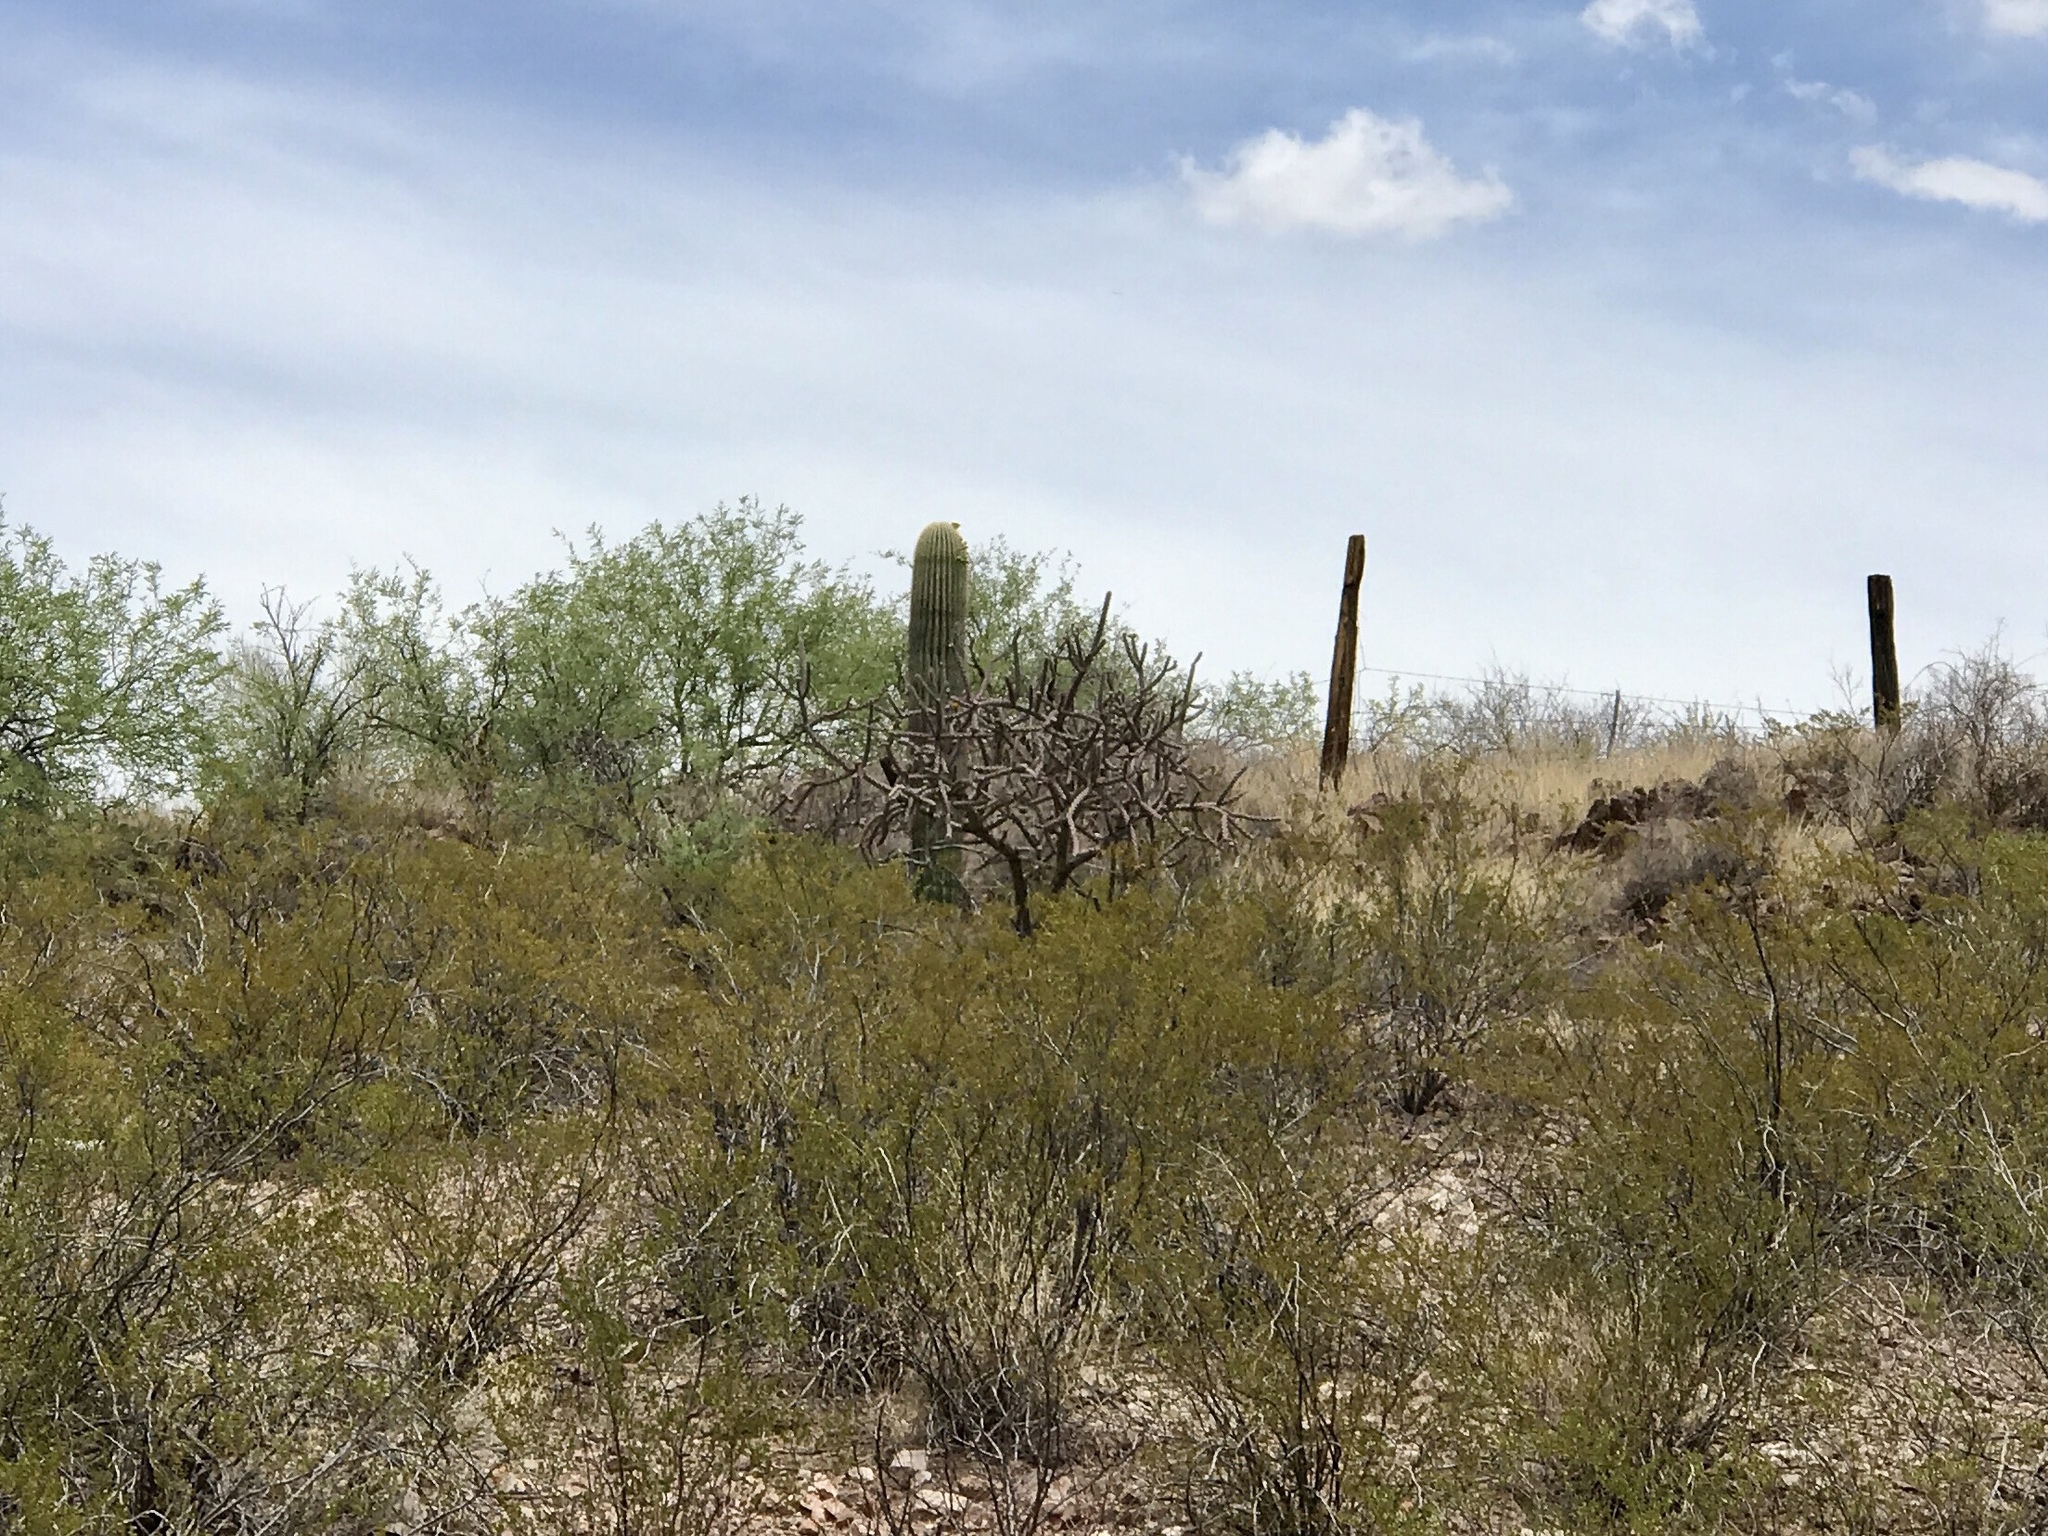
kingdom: Plantae
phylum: Tracheophyta
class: Magnoliopsida
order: Caryophyllales
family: Cactaceae
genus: Carnegiea
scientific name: Carnegiea gigantea
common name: Saguaro
